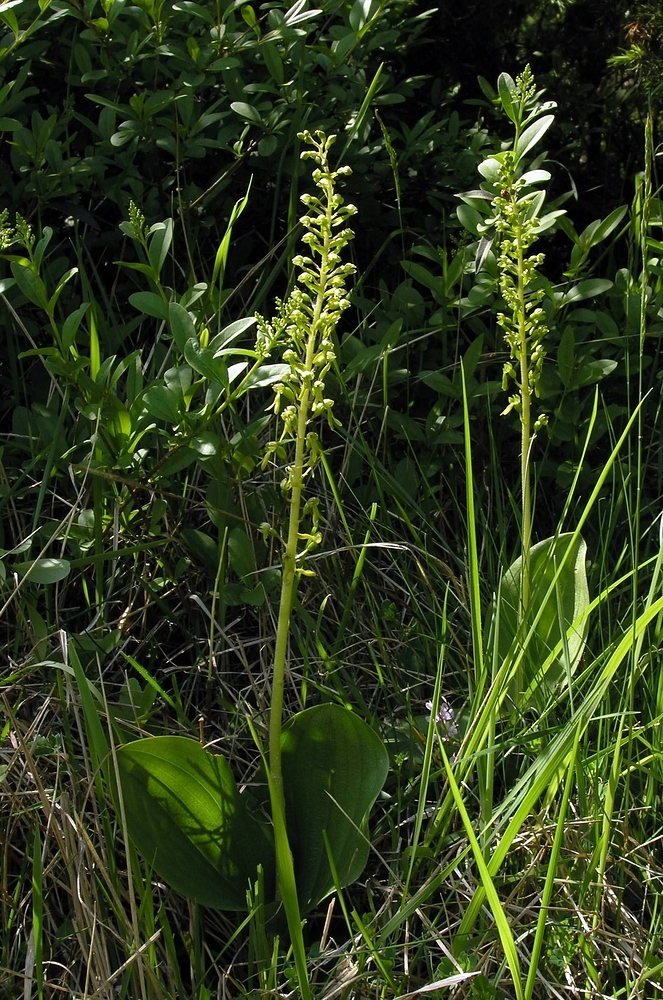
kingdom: Plantae
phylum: Tracheophyta
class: Liliopsida
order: Asparagales
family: Orchidaceae
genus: Neottia
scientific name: Neottia ovata
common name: Common twayblade
